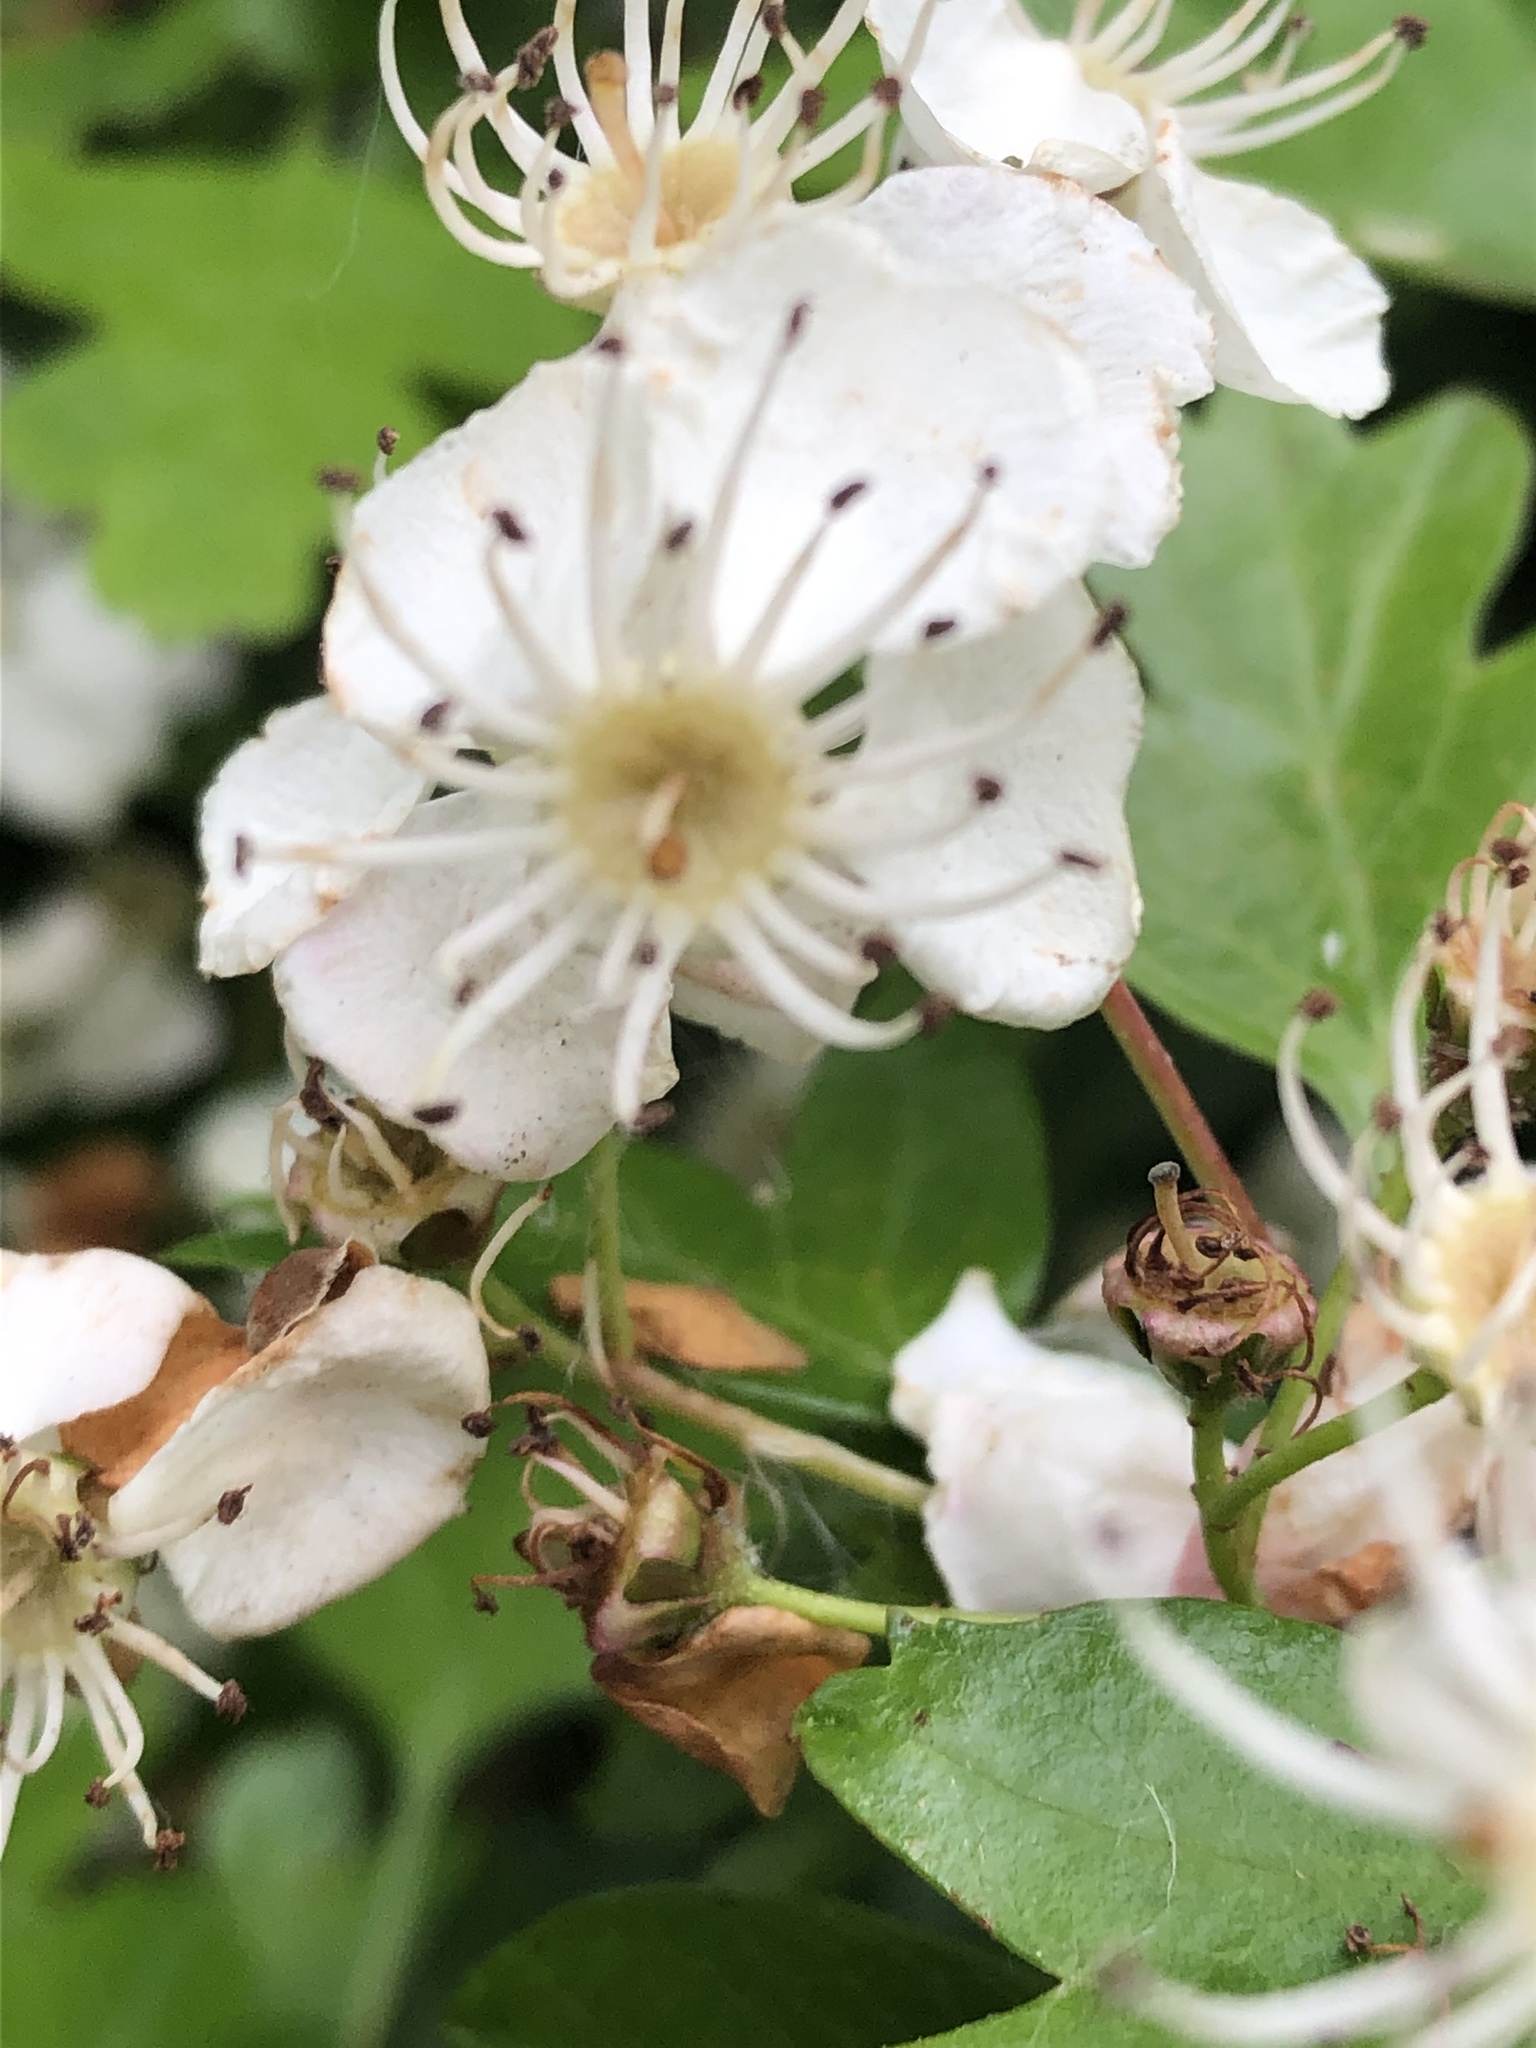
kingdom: Plantae
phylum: Tracheophyta
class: Magnoliopsida
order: Rosales
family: Rosaceae
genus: Crataegus
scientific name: Crataegus monogyna
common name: Hawthorn
